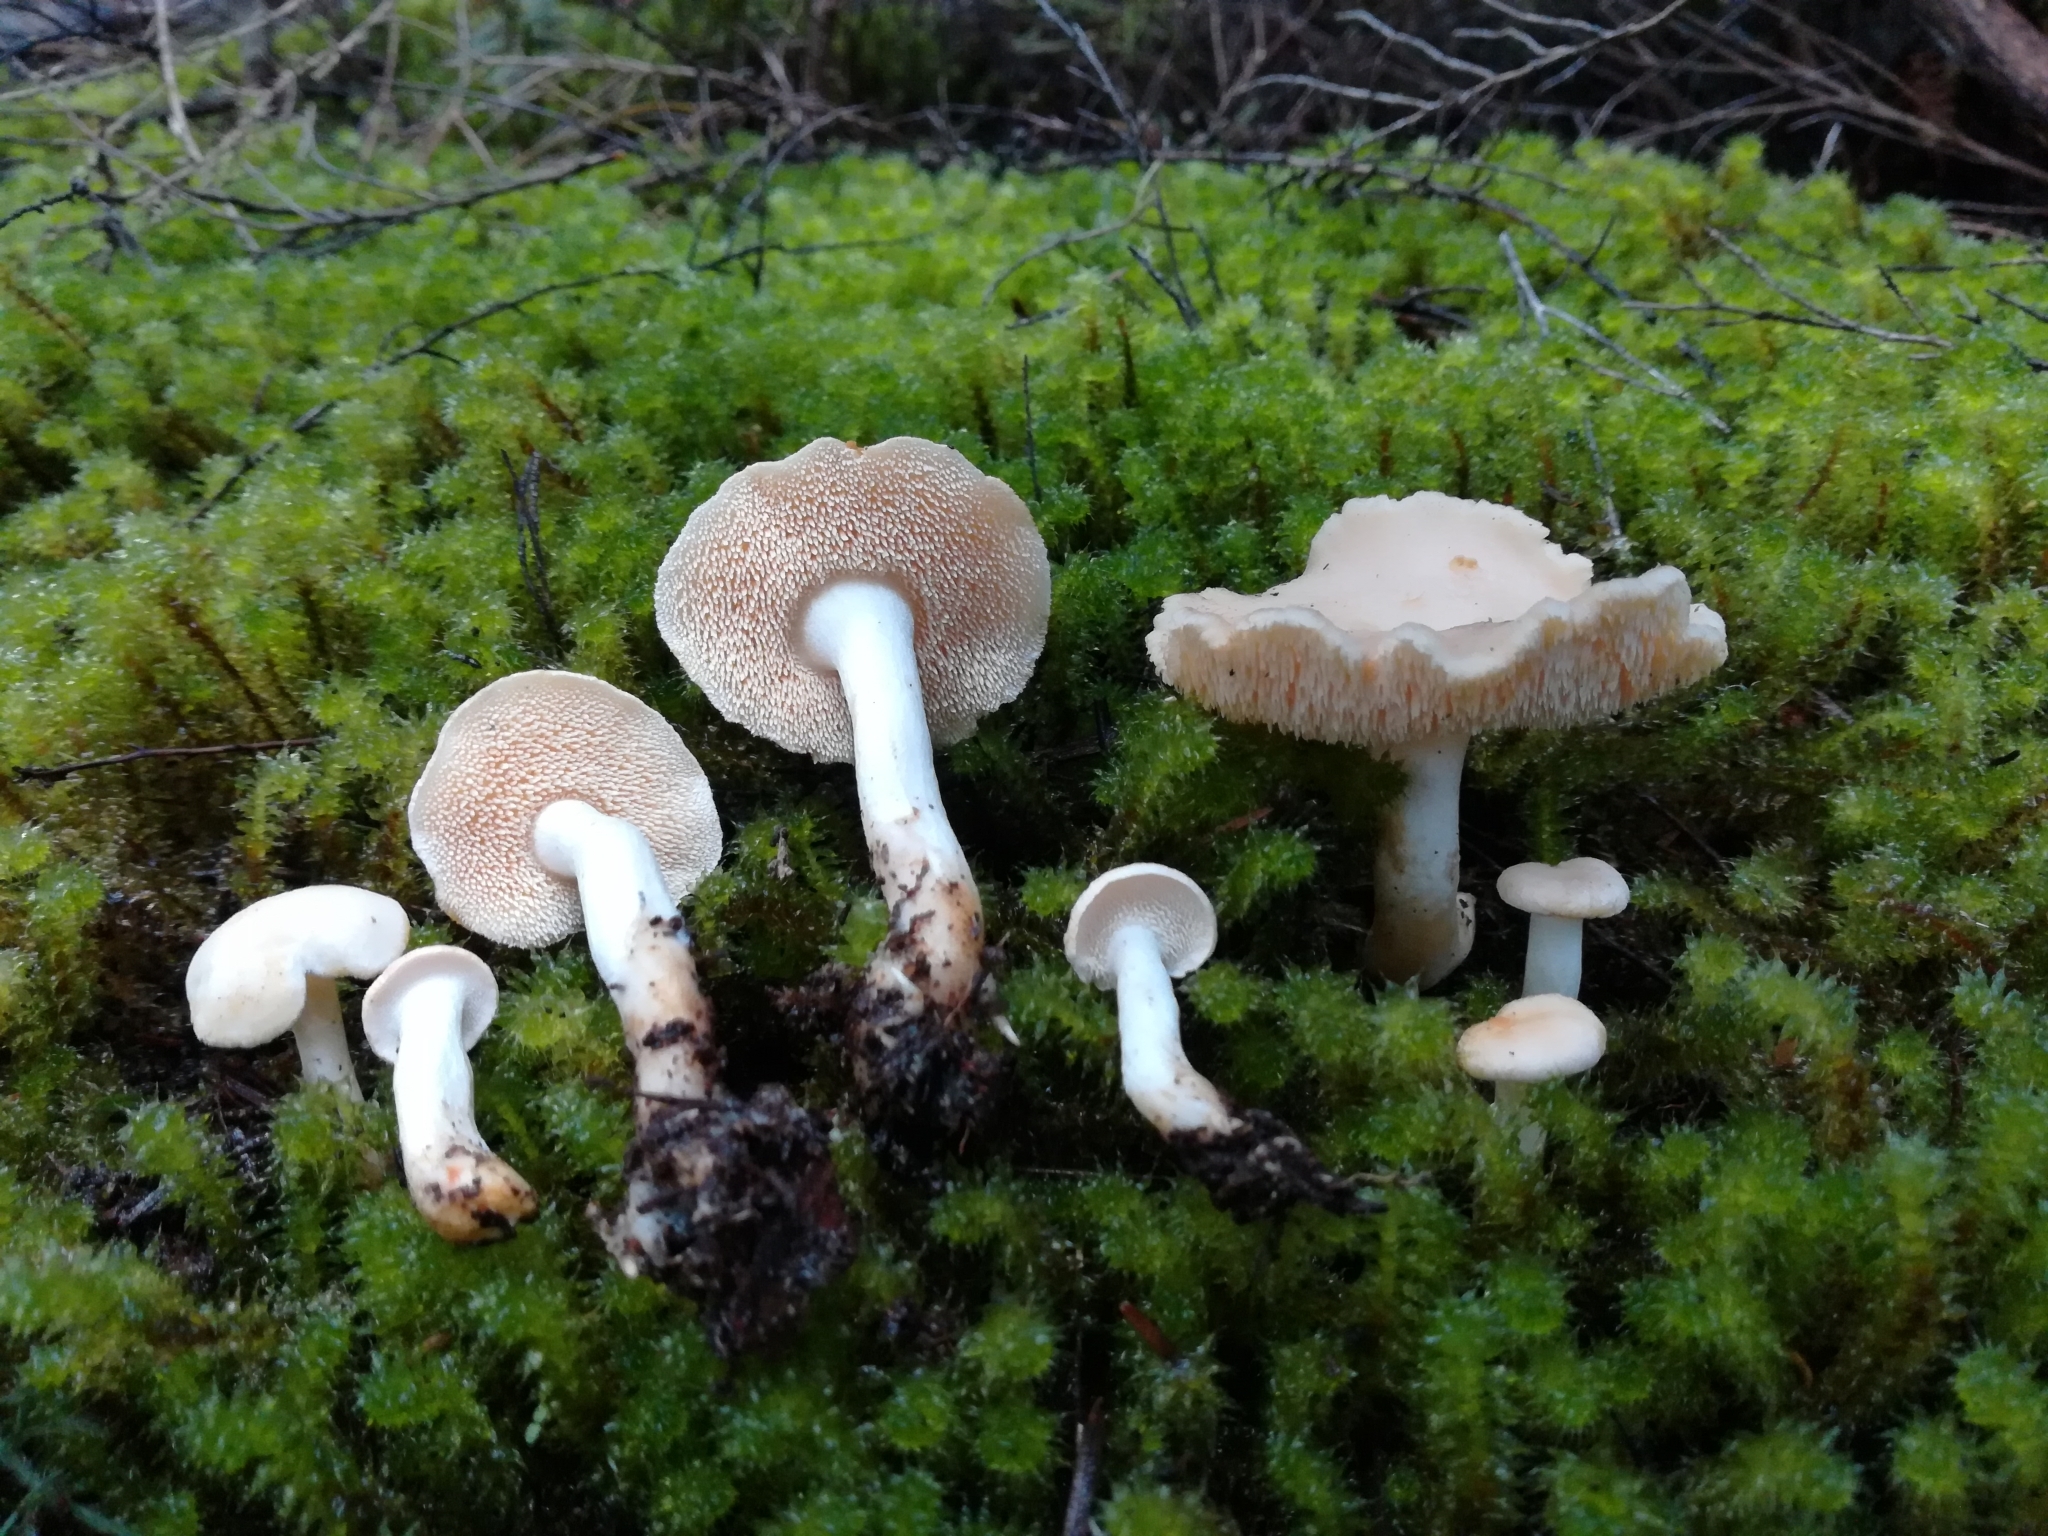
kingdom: Fungi
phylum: Basidiomycota
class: Agaricomycetes
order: Cantharellales
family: Hydnaceae
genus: Hydnum
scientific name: Hydnum ambustum
